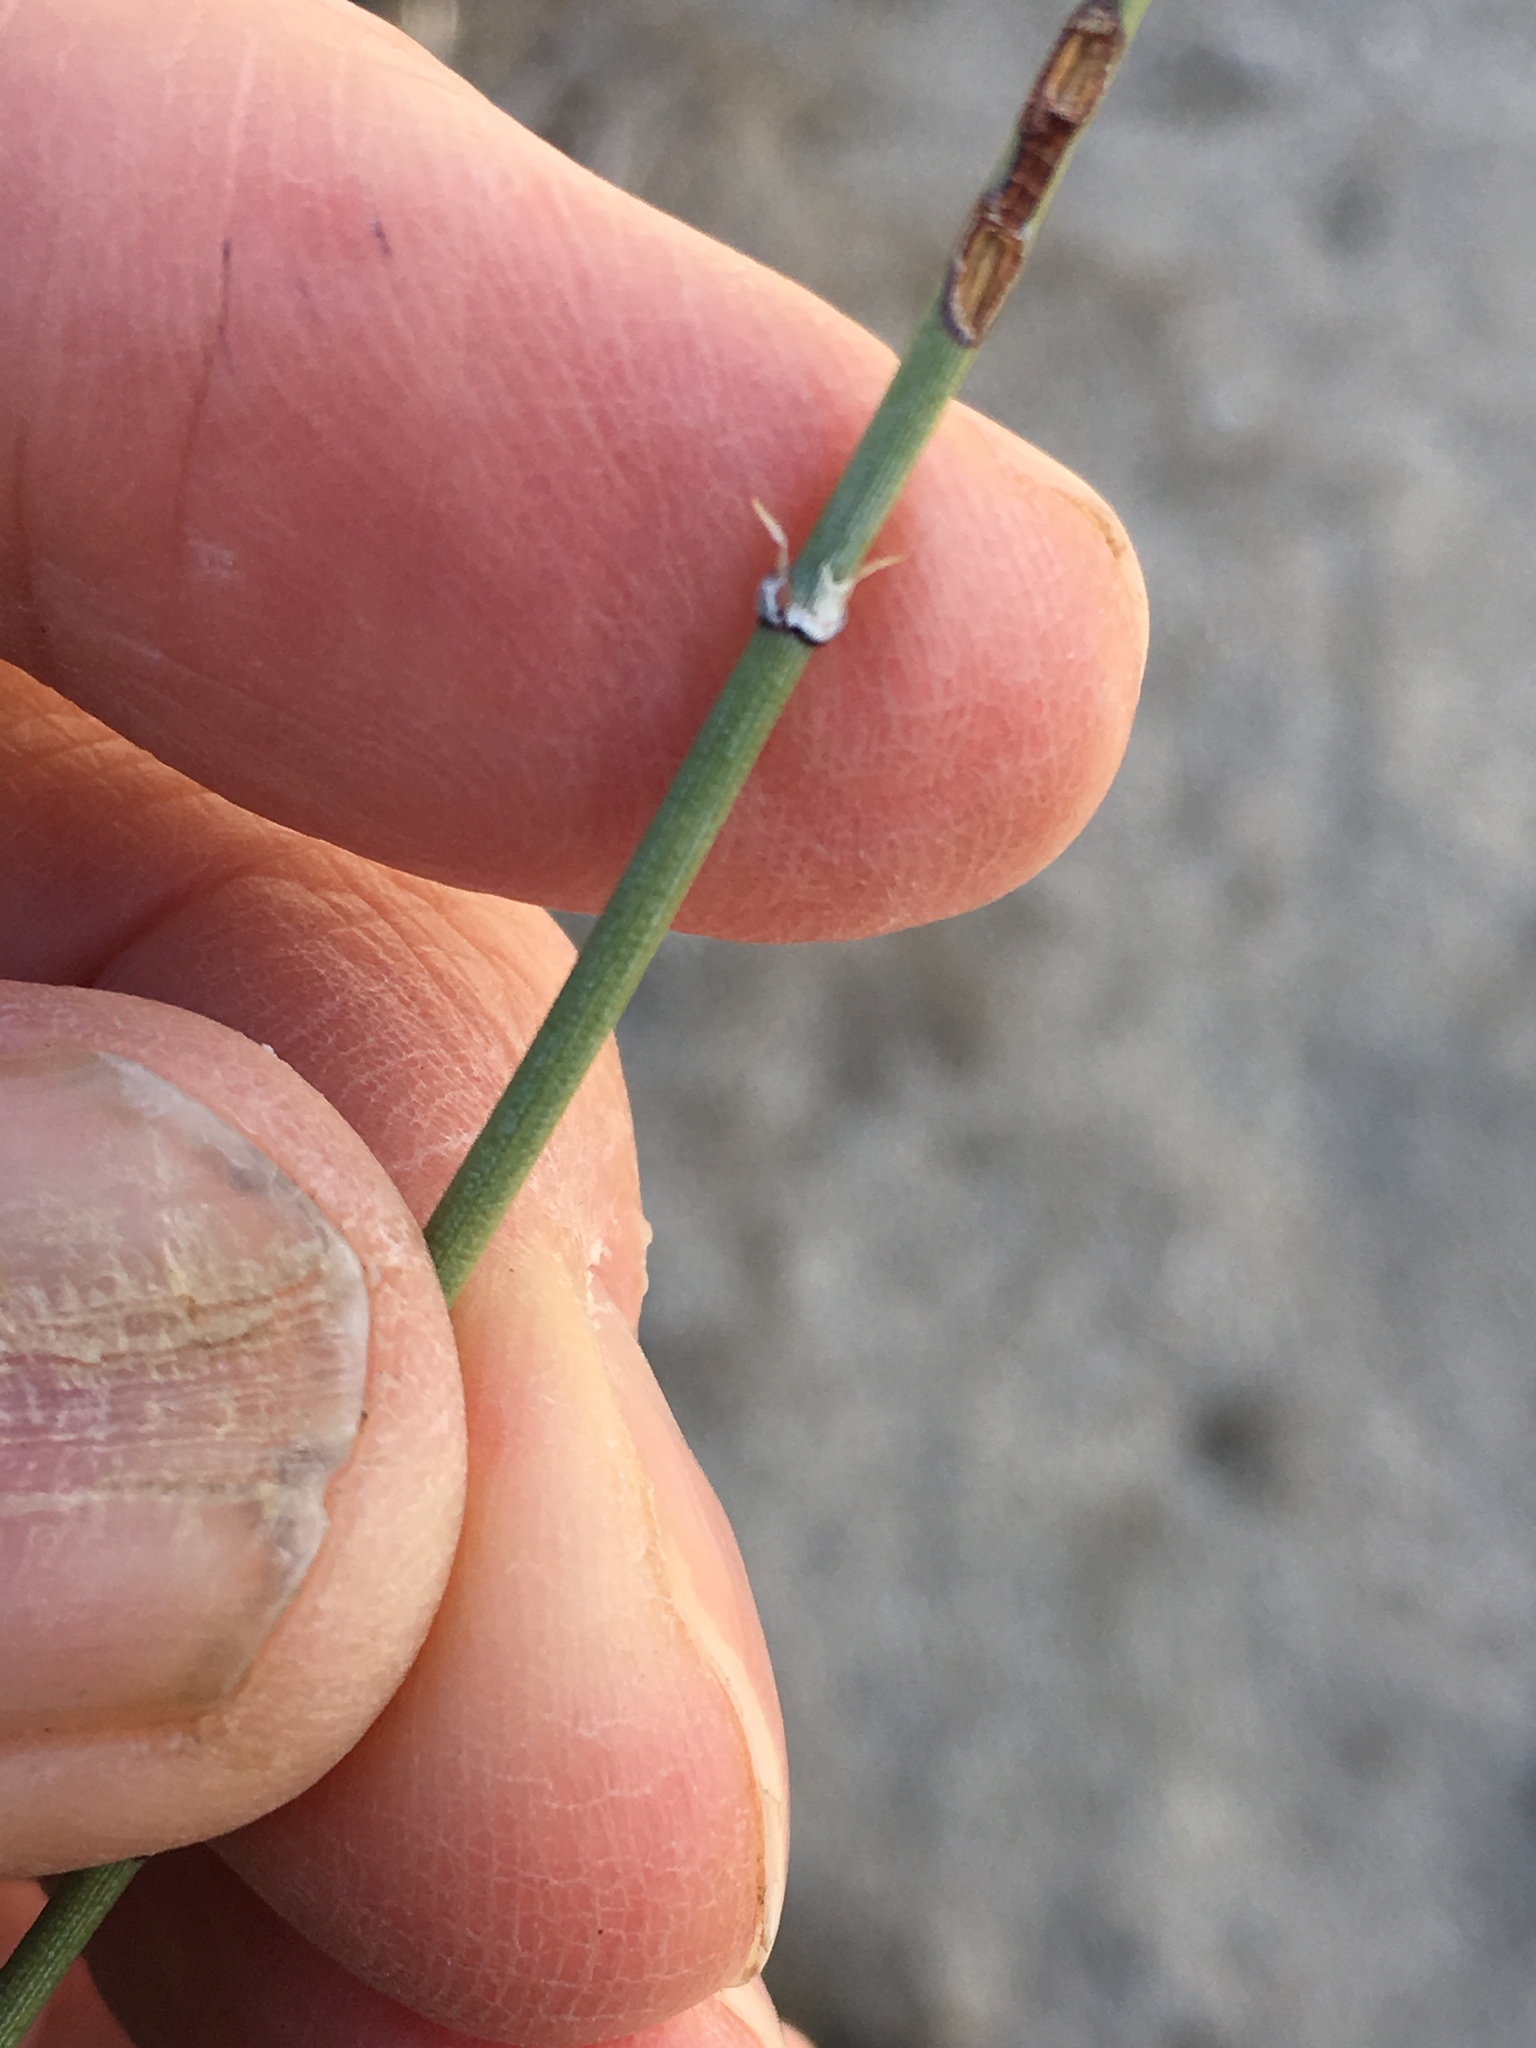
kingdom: Plantae
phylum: Tracheophyta
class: Gnetopsida
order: Ephedrales
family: Ephedraceae
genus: Ephedra
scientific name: Ephedra aspera
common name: Boundary ephedra
